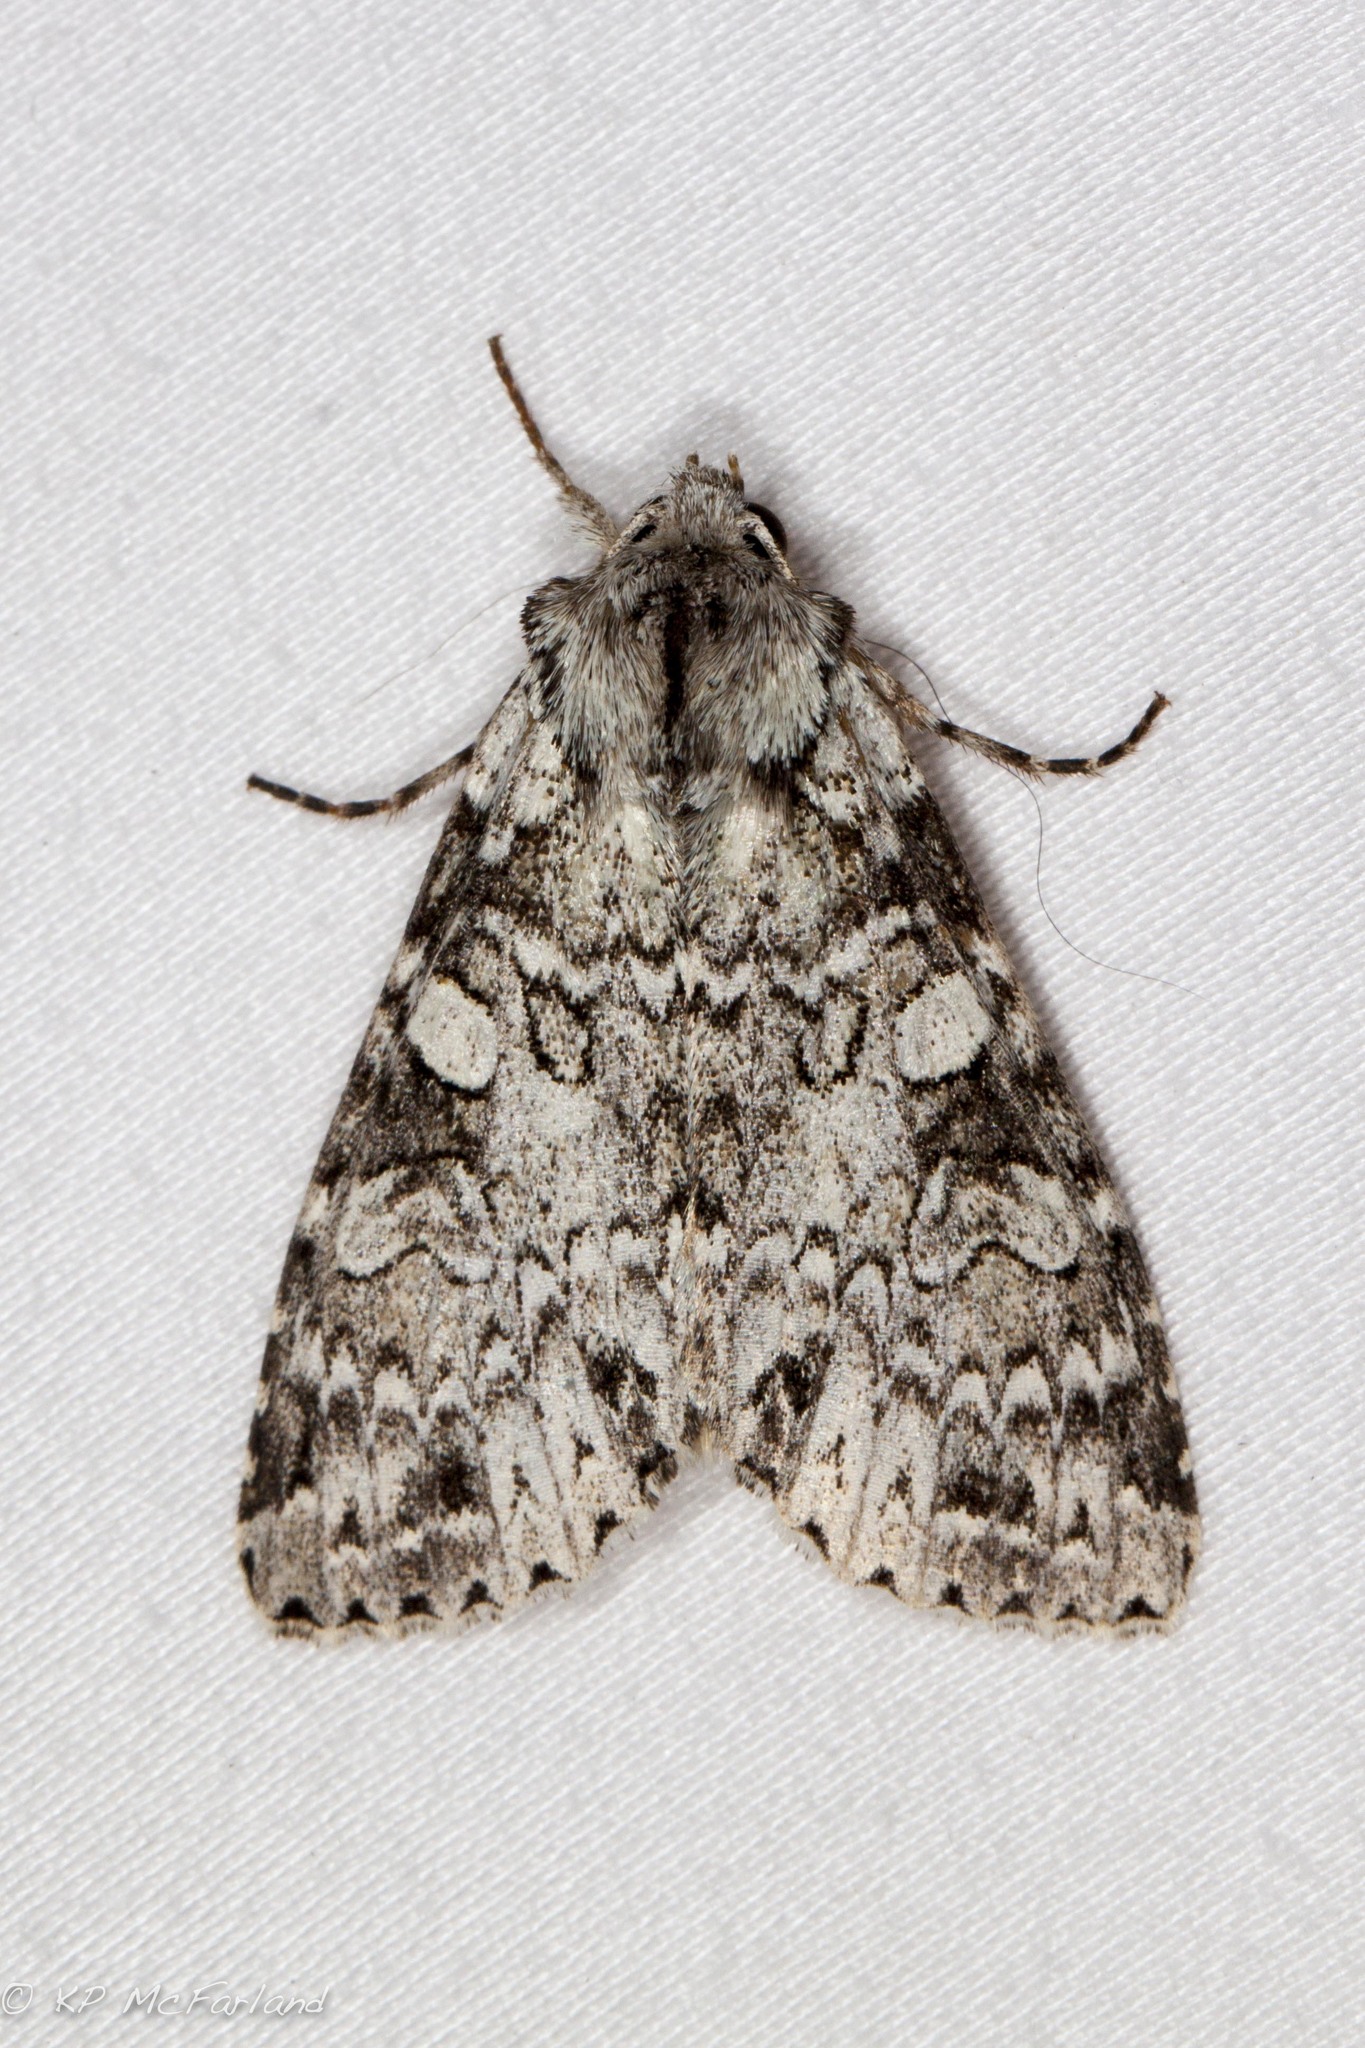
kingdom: Animalia
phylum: Arthropoda
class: Insecta
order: Lepidoptera
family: Noctuidae
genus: Polia
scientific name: Polia nimbosa
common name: Stormy arches
